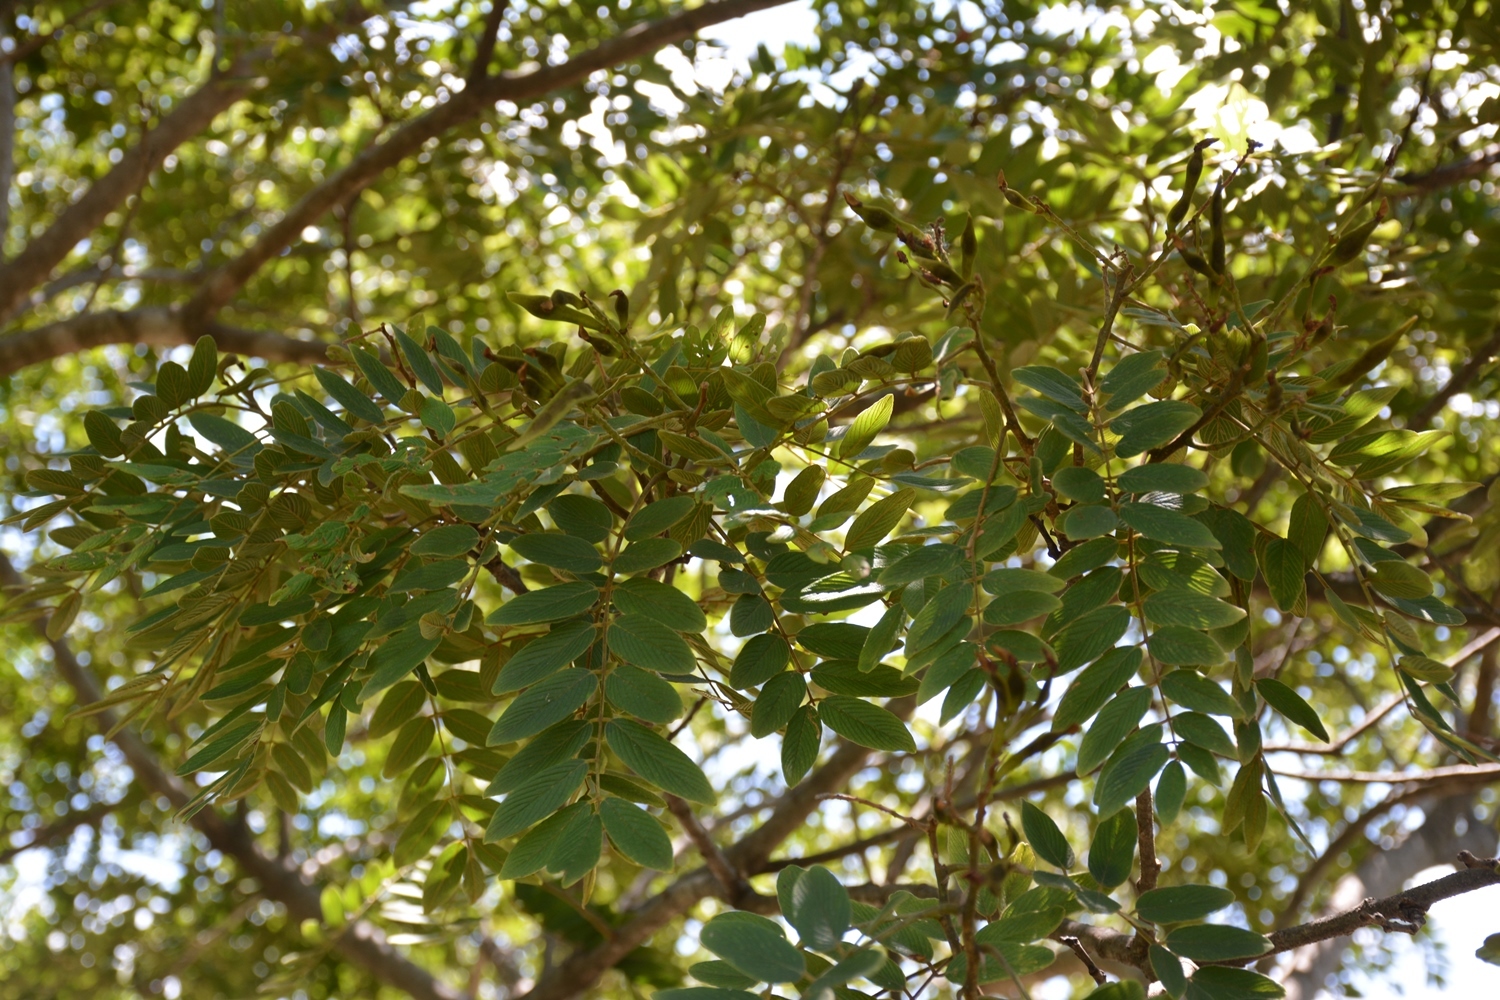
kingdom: Plantae
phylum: Tracheophyta
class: Magnoliopsida
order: Fabales
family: Fabaceae
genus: Lonchocarpus
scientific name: Lonchocarpus rugosus
